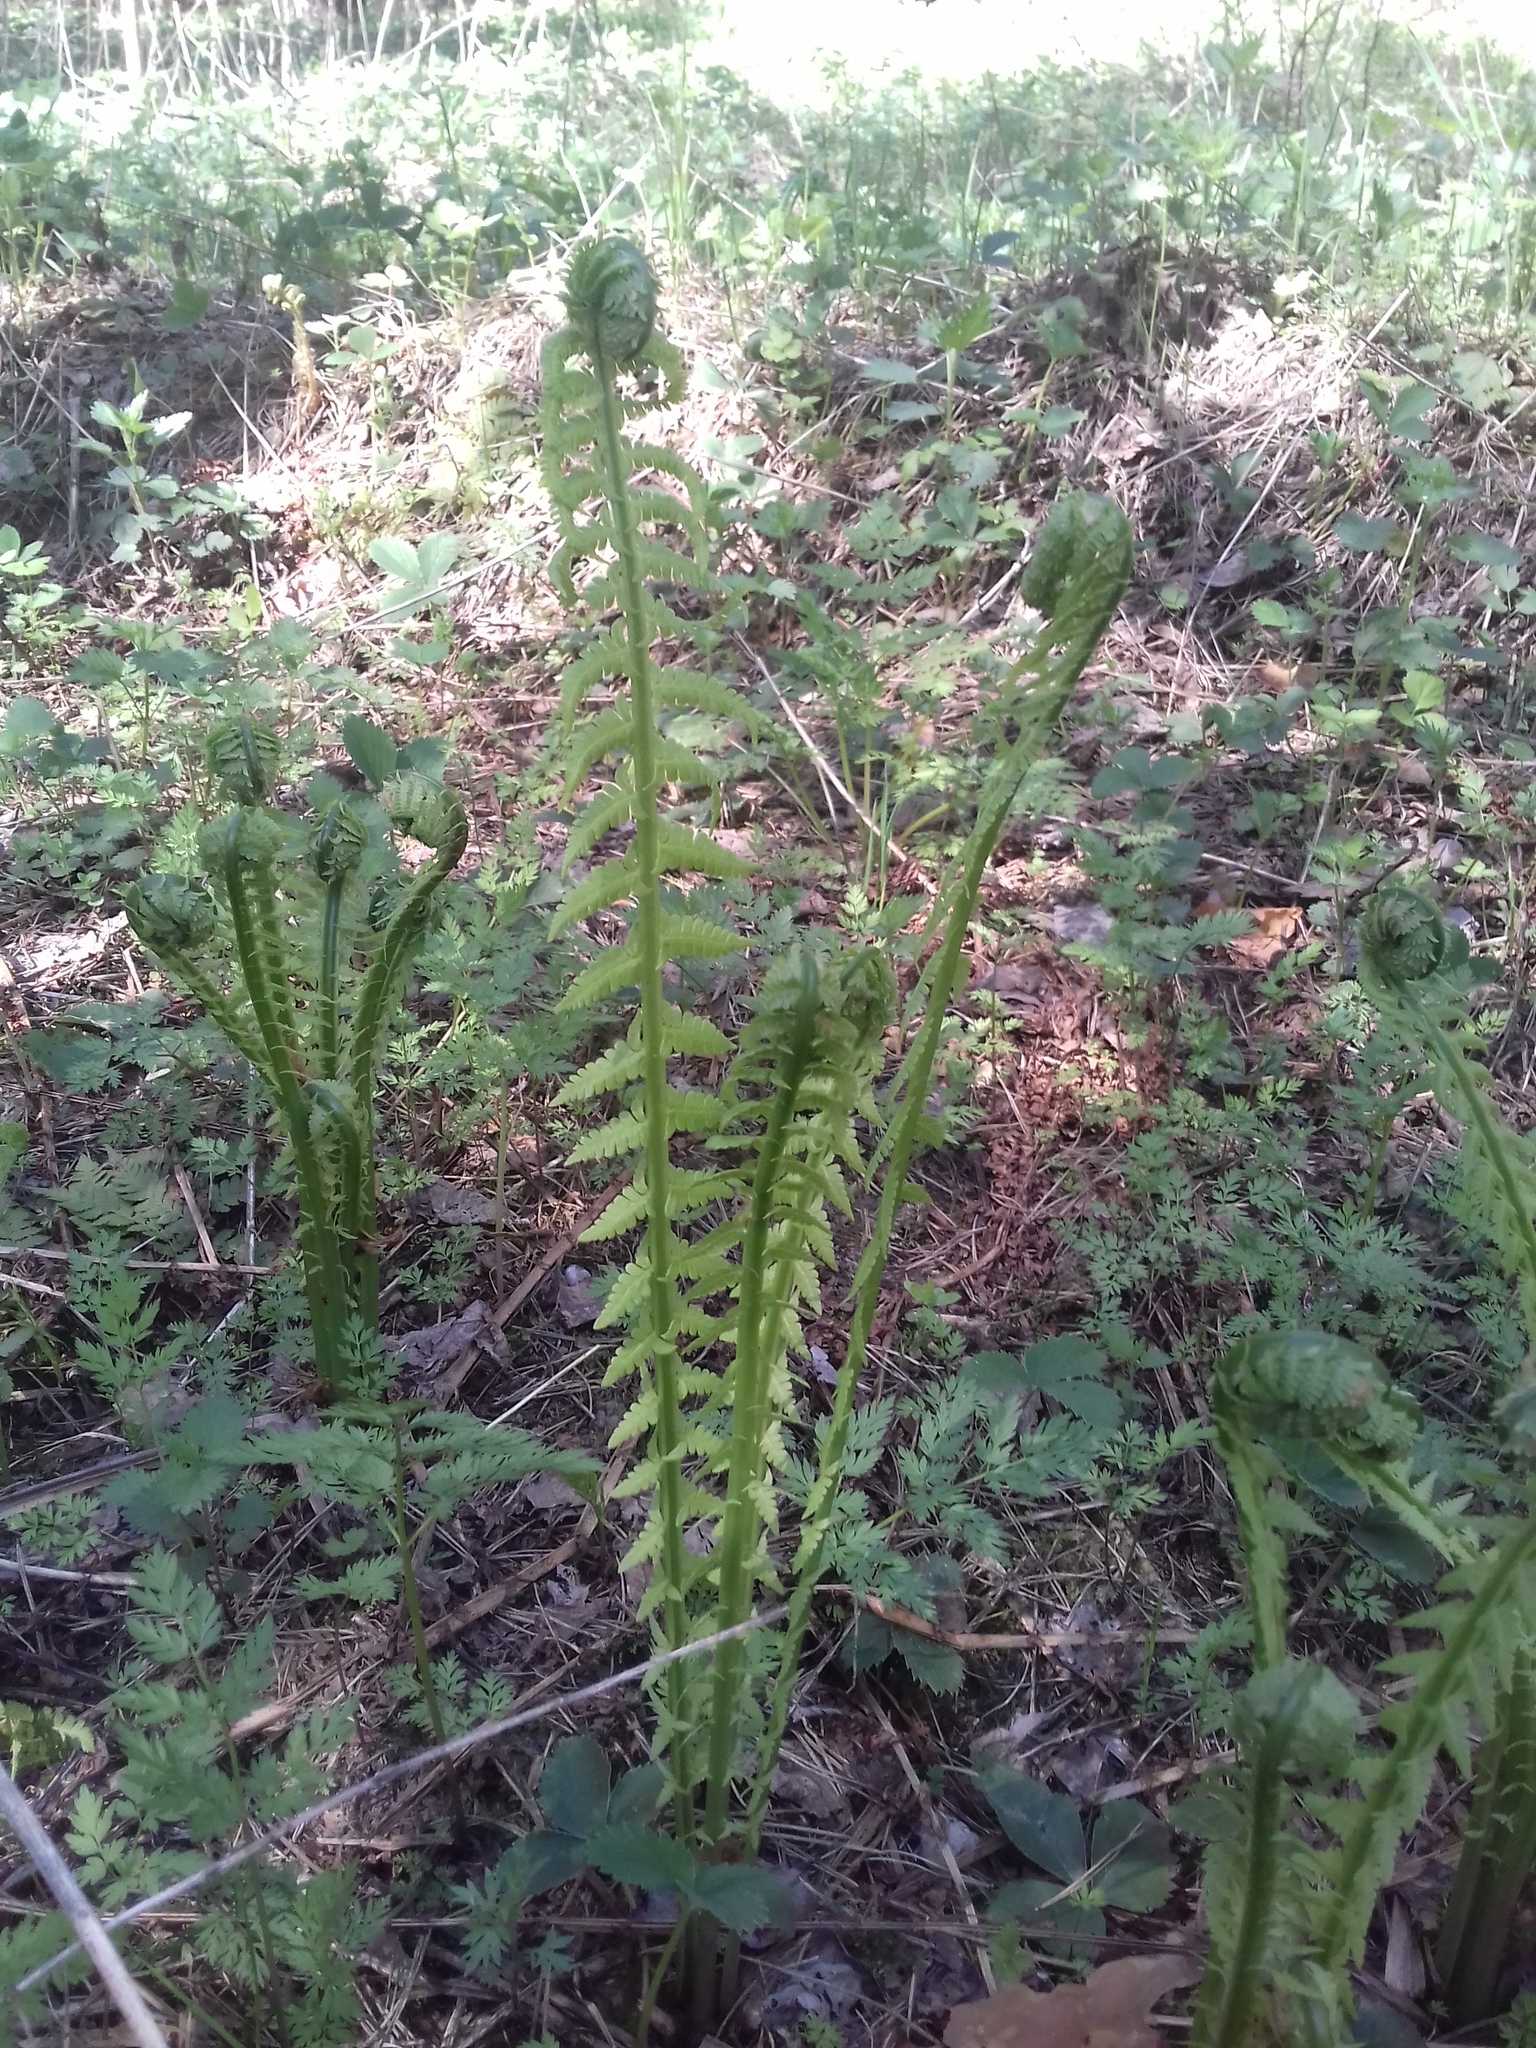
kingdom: Plantae
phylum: Tracheophyta
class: Polypodiopsida
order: Polypodiales
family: Onocleaceae
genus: Matteuccia
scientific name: Matteuccia struthiopteris
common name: Ostrich fern
